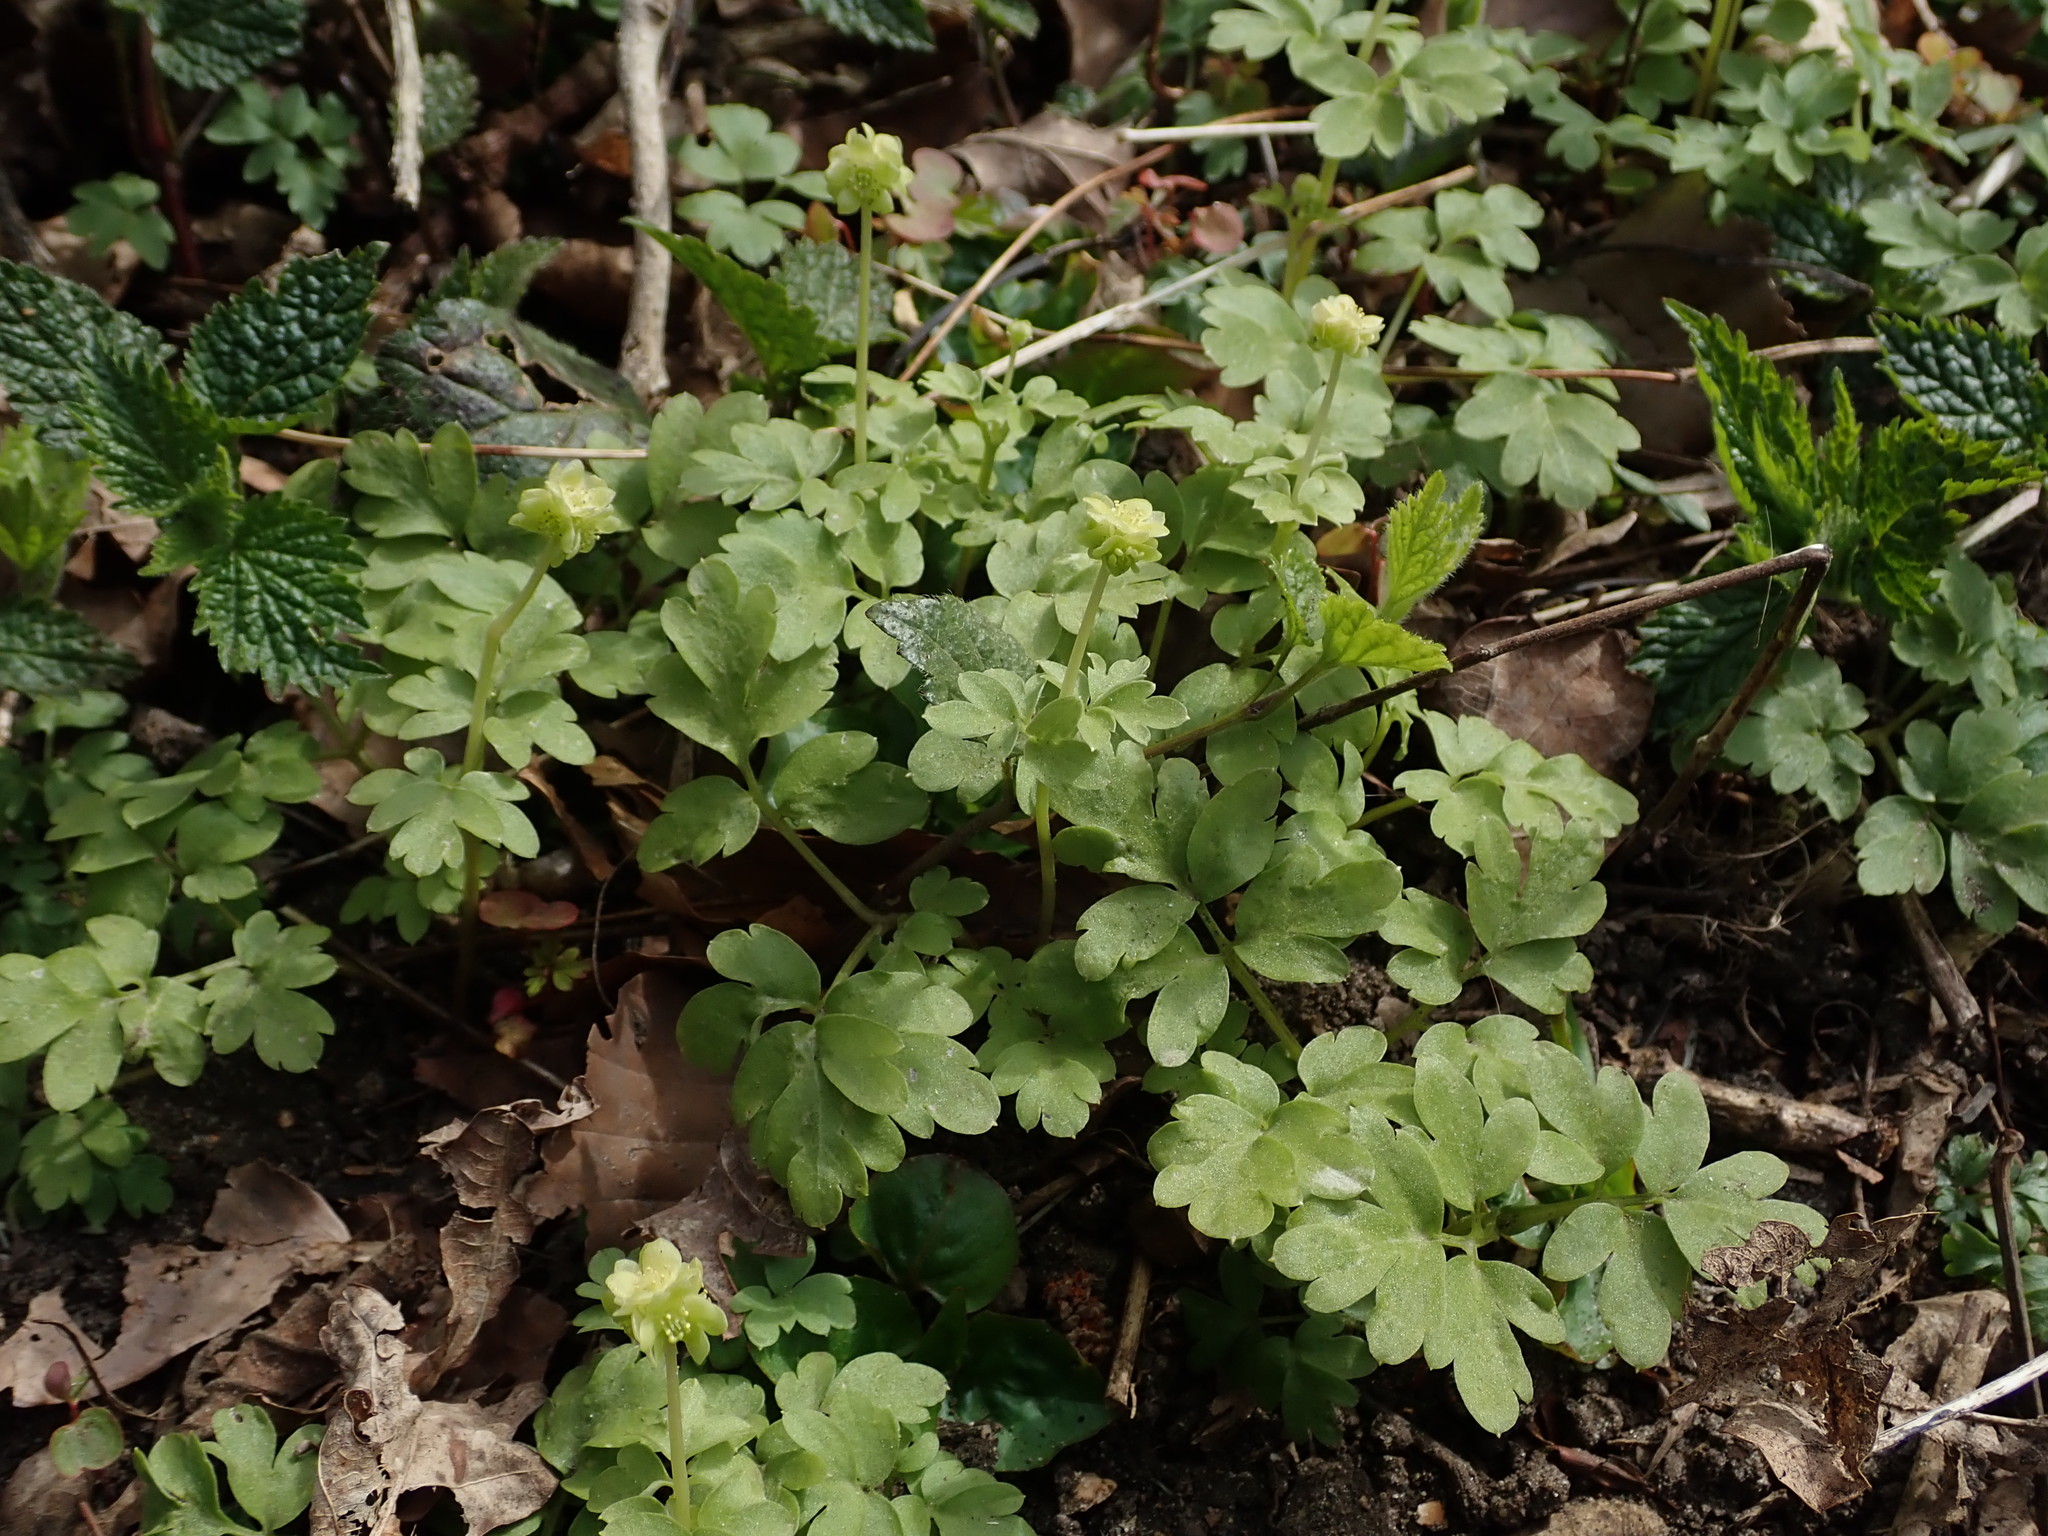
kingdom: Plantae
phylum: Tracheophyta
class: Magnoliopsida
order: Dipsacales
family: Viburnaceae
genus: Adoxa
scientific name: Adoxa moschatellina
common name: Moschatel
